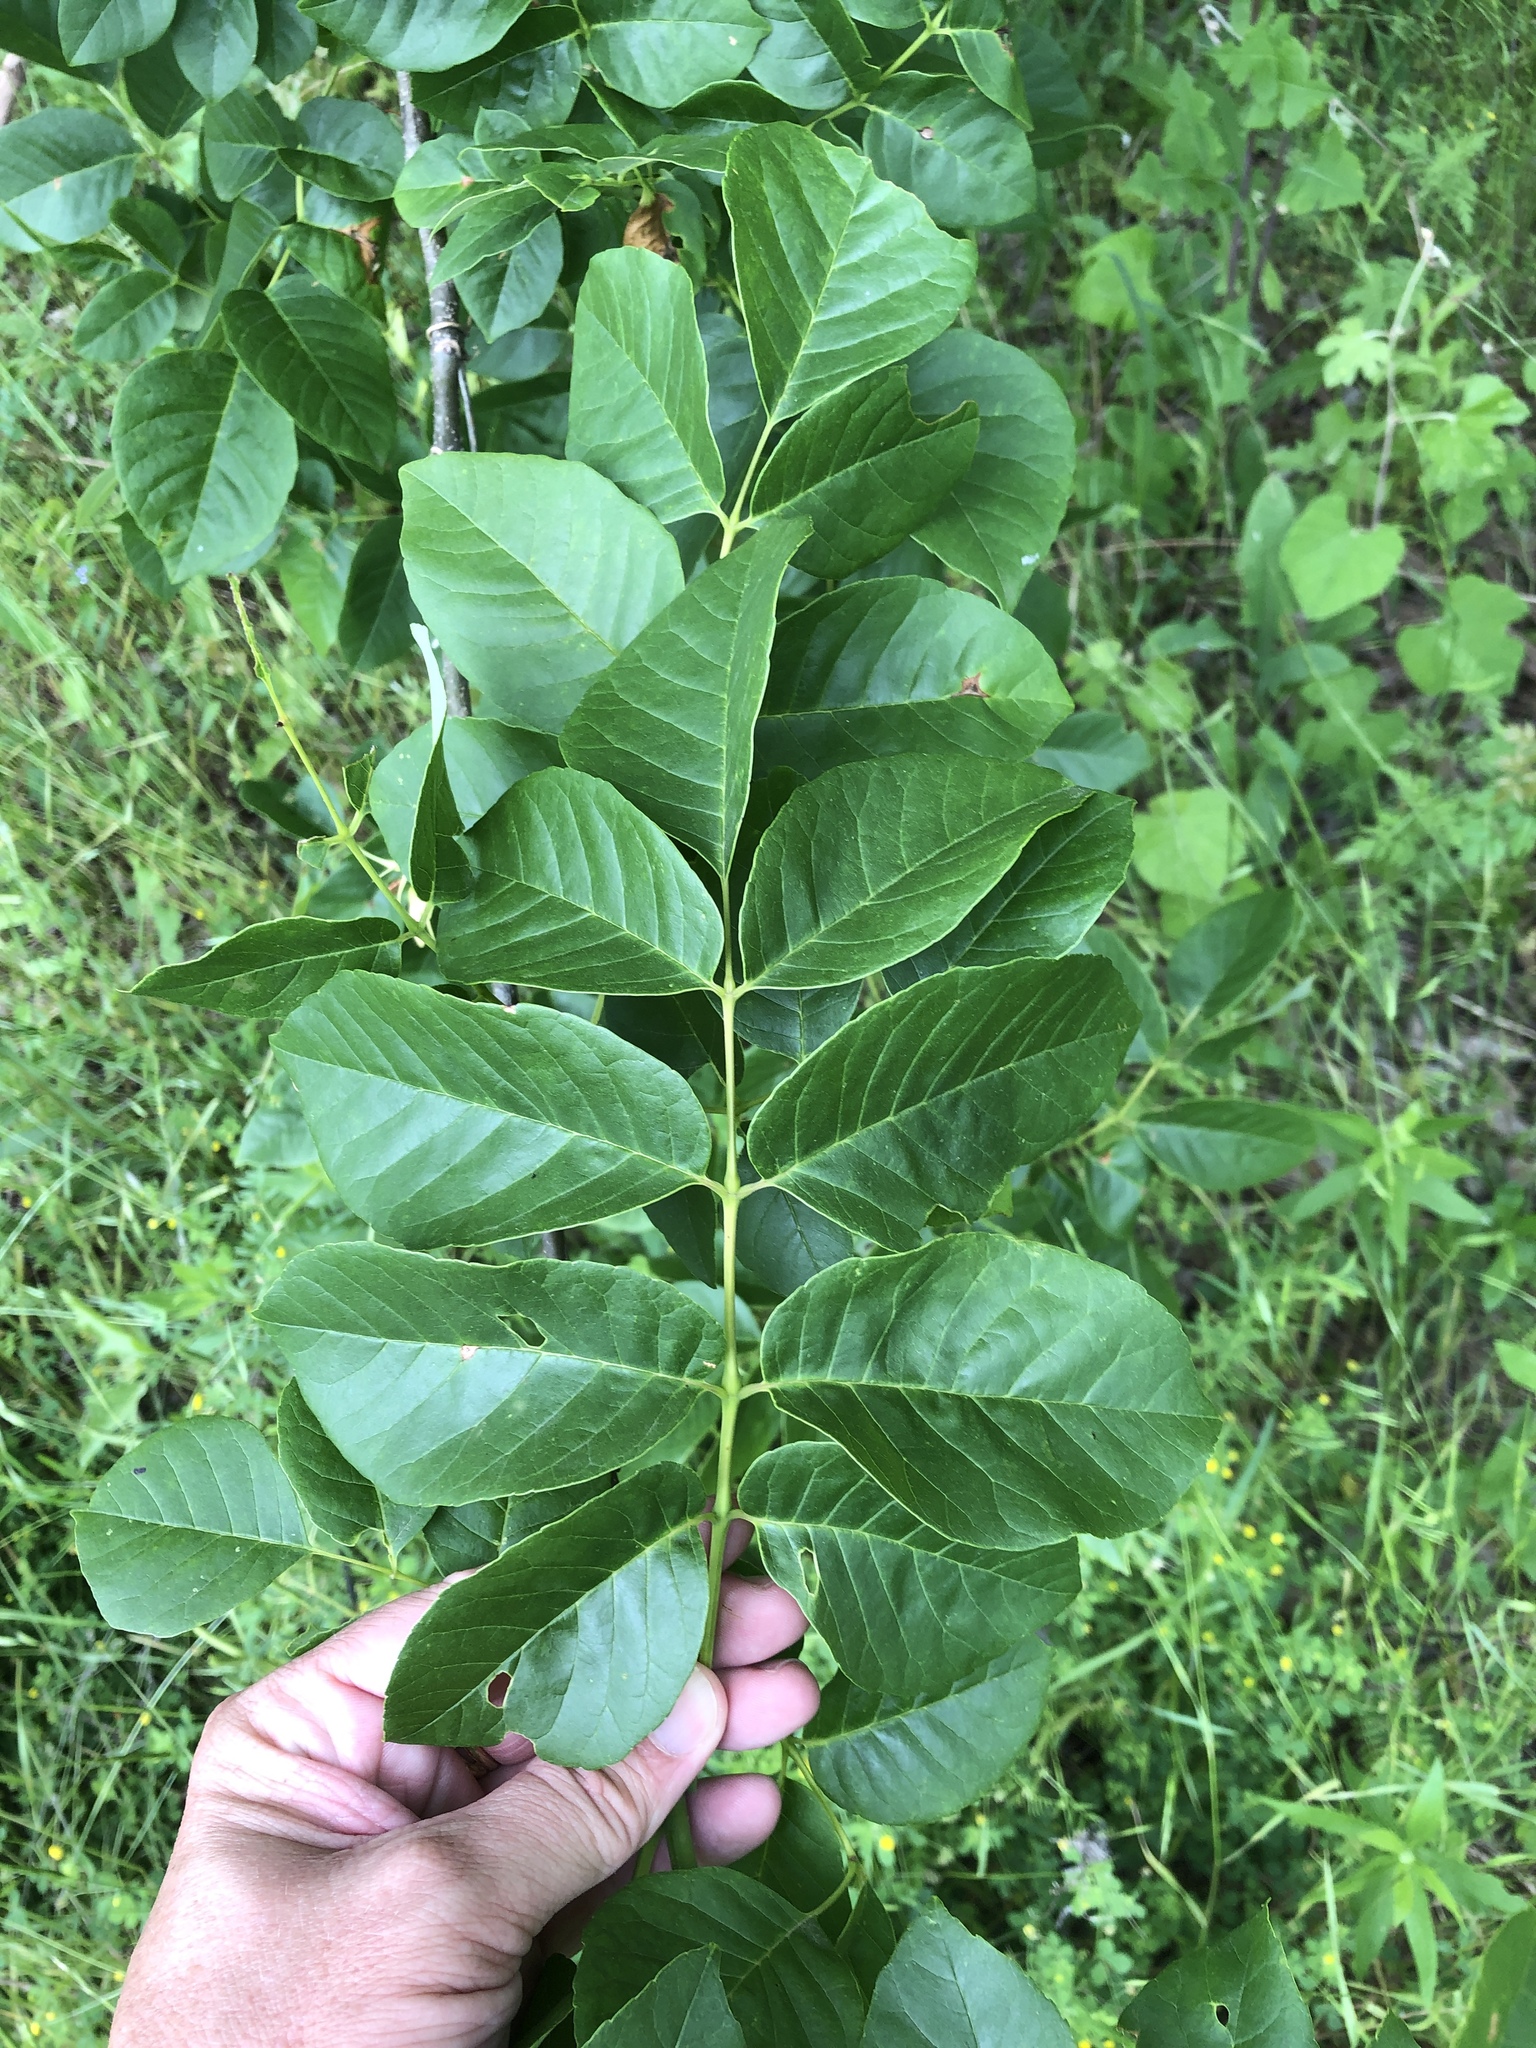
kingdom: Plantae
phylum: Tracheophyta
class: Magnoliopsida
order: Lamiales
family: Oleaceae
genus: Fraxinus
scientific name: Fraxinus pennsylvanica
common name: Green ash
